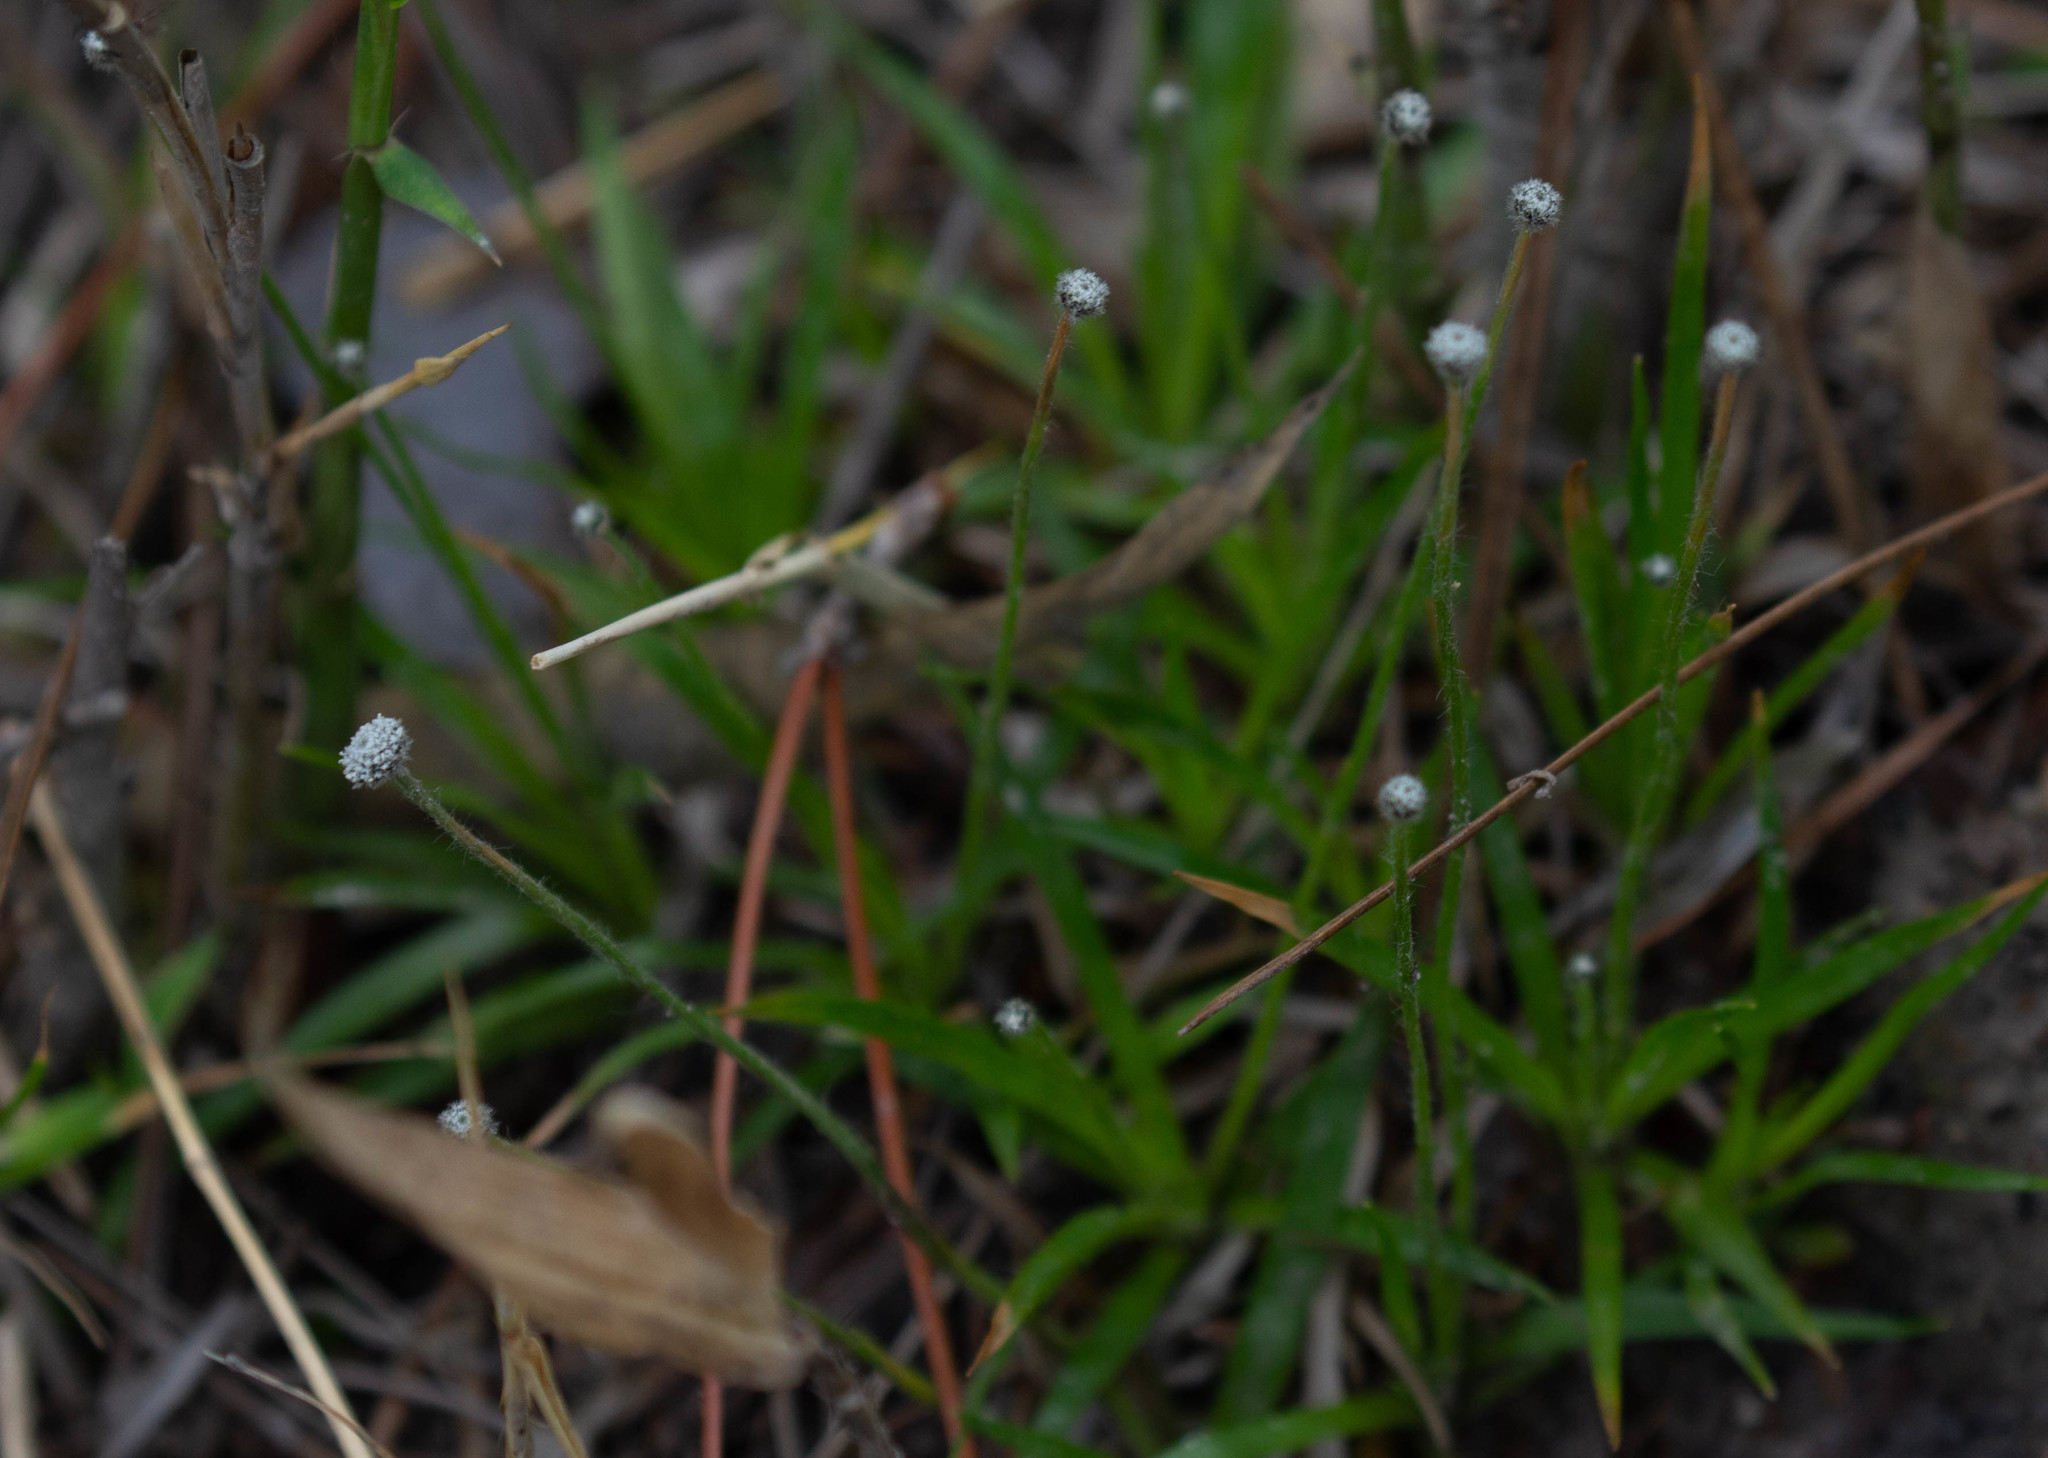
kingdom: Plantae
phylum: Tracheophyta
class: Liliopsida
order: Poales
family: Eriocaulaceae
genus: Paepalanthus
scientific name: Paepalanthus anceps
